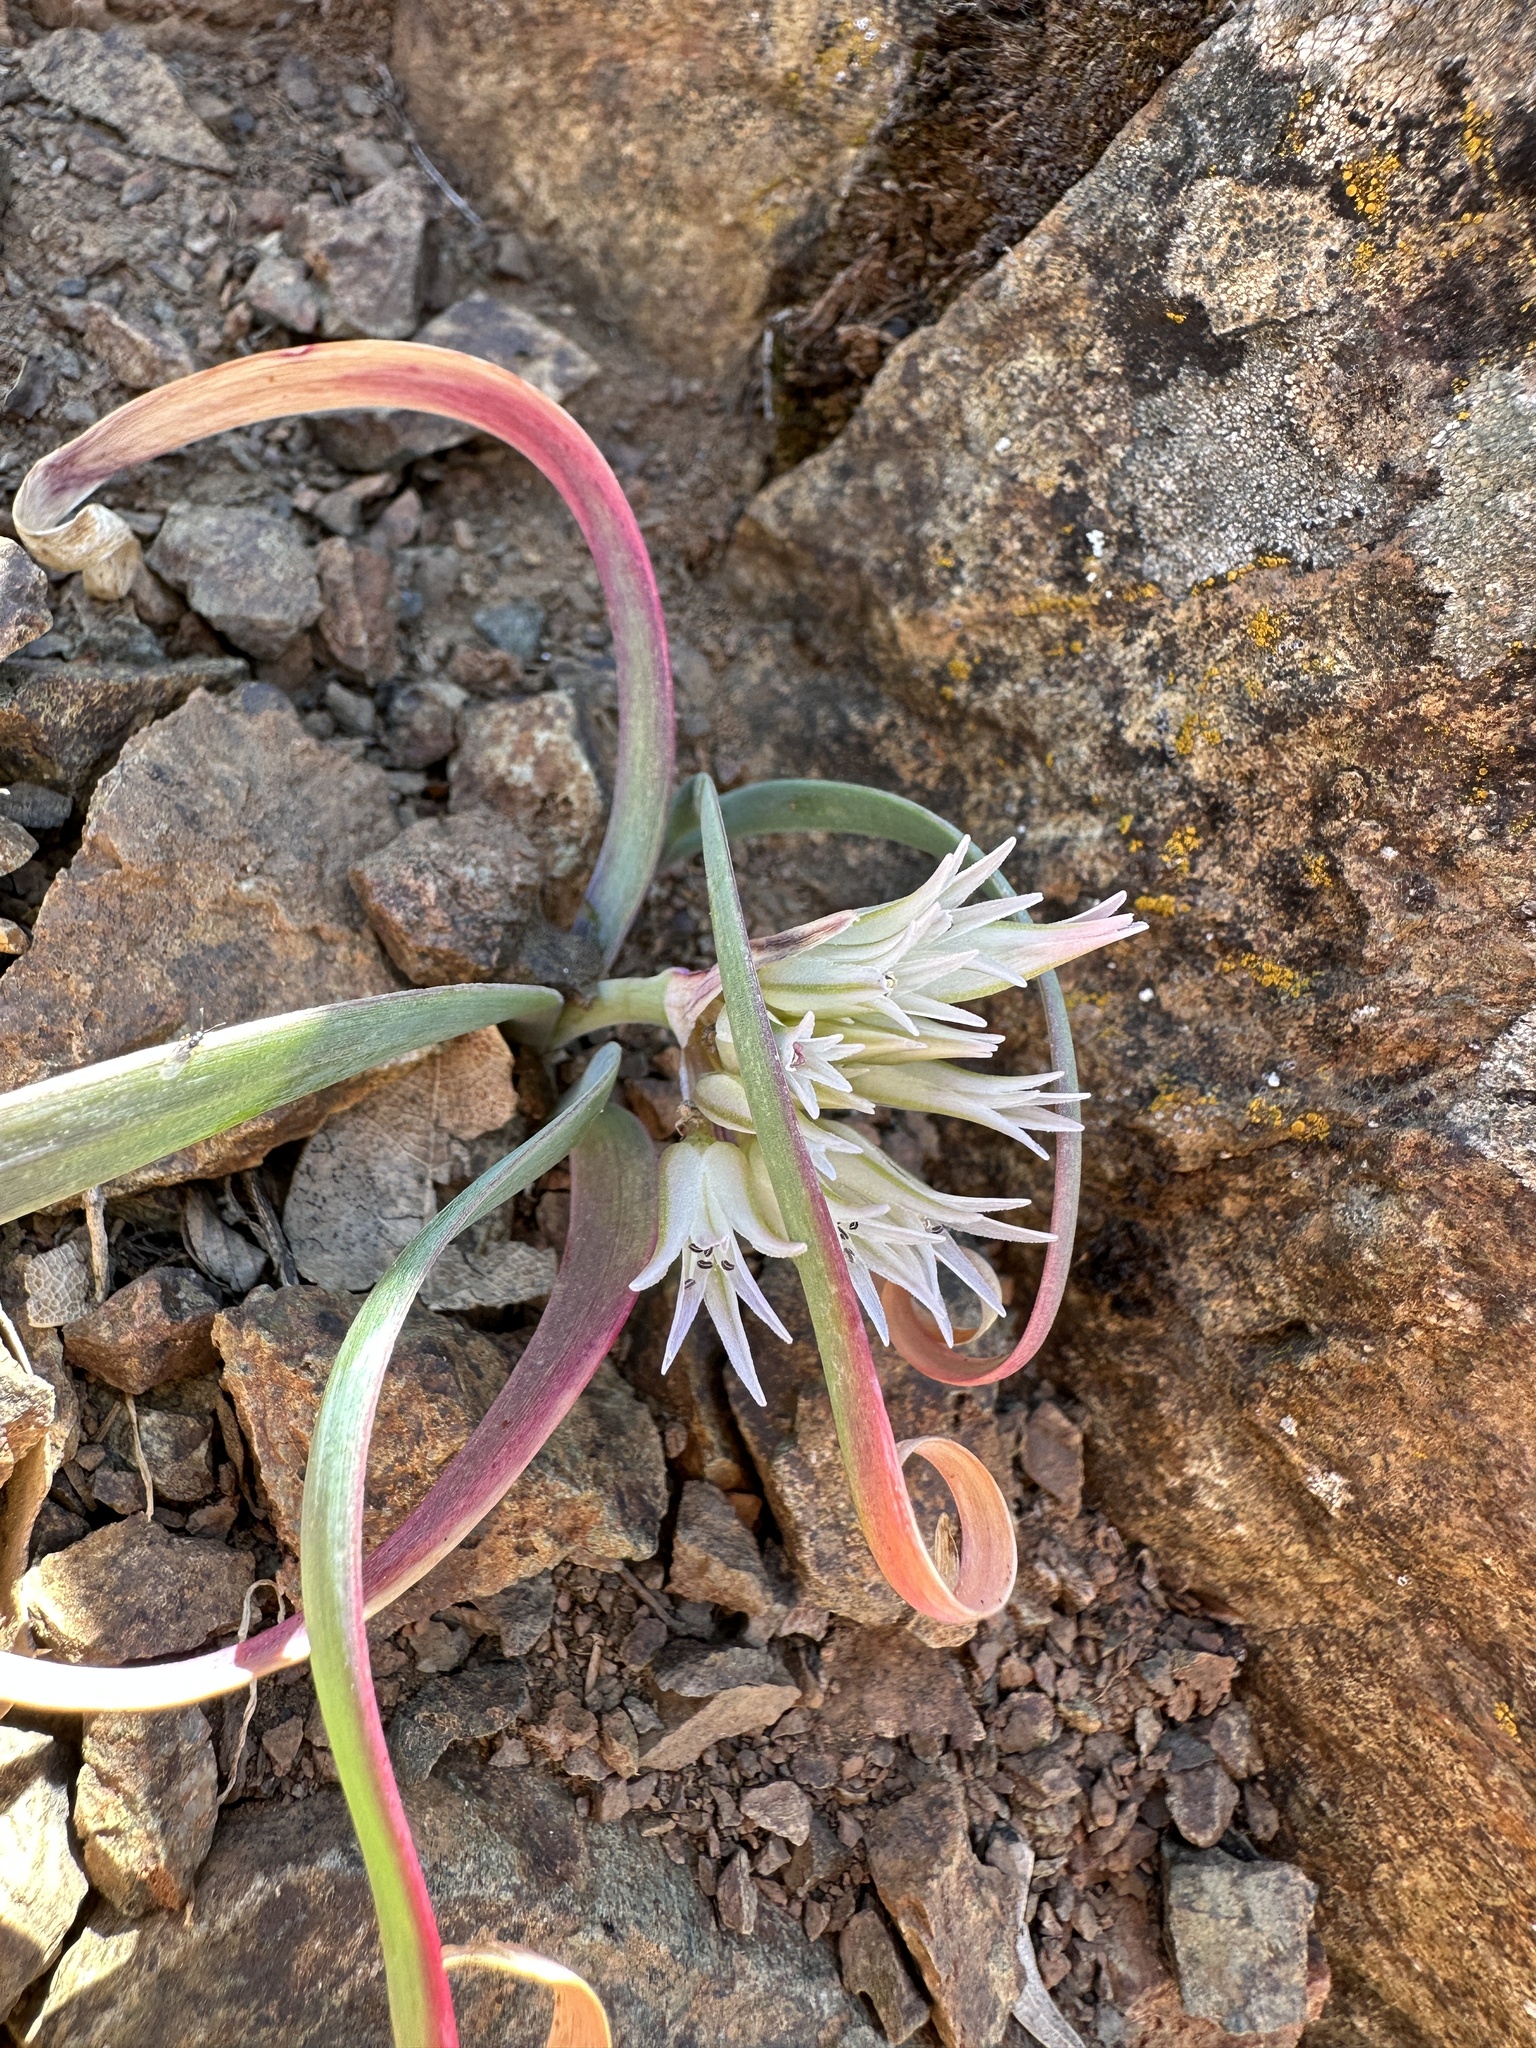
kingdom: Plantae
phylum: Tracheophyta
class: Liliopsida
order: Asparagales
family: Amaryllidaceae
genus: Allium
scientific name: Allium falcifolium
